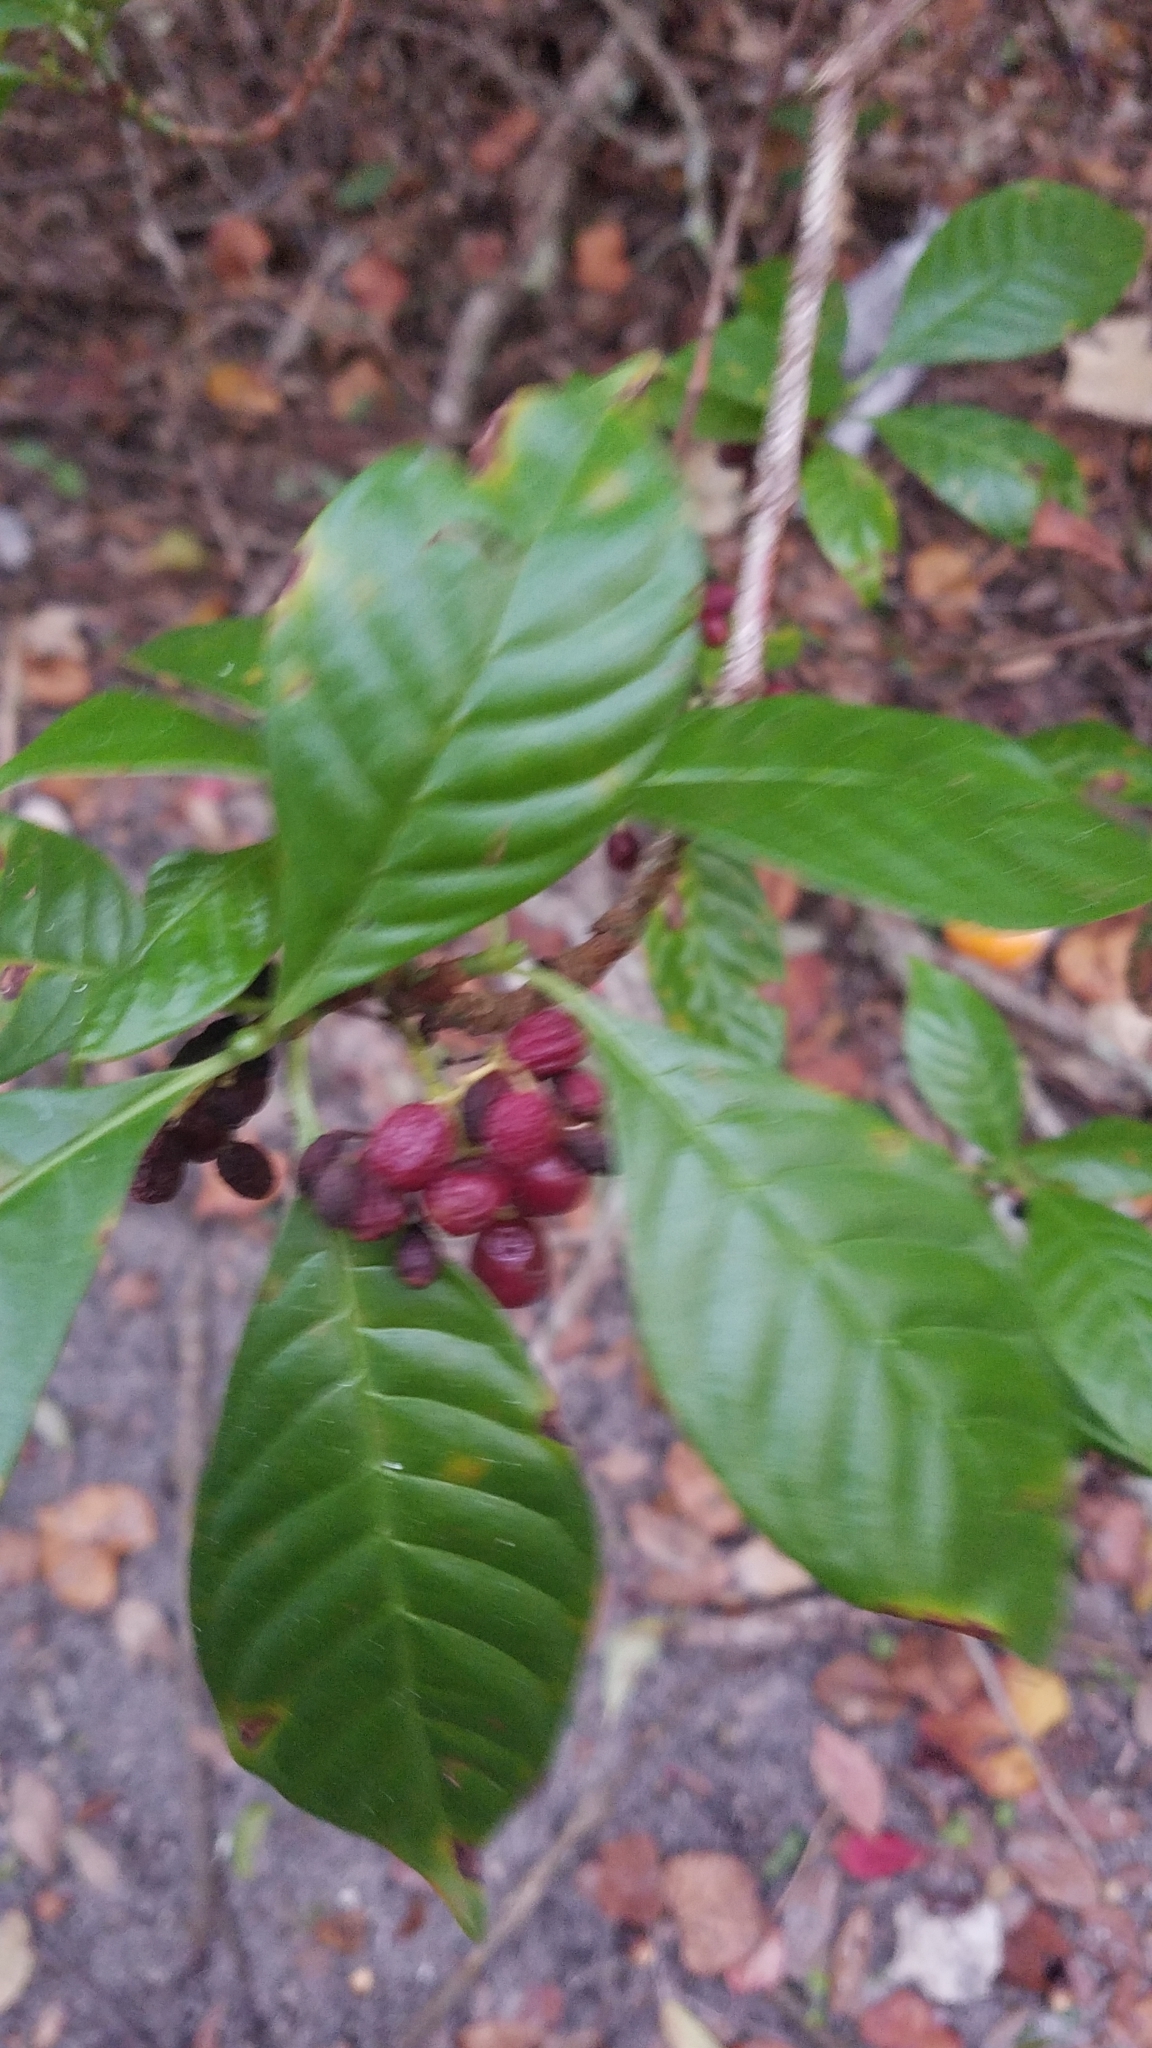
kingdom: Plantae
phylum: Tracheophyta
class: Magnoliopsida
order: Gentianales
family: Rubiaceae
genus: Psychotria
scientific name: Psychotria nervosa
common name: Bastard cankerberry
